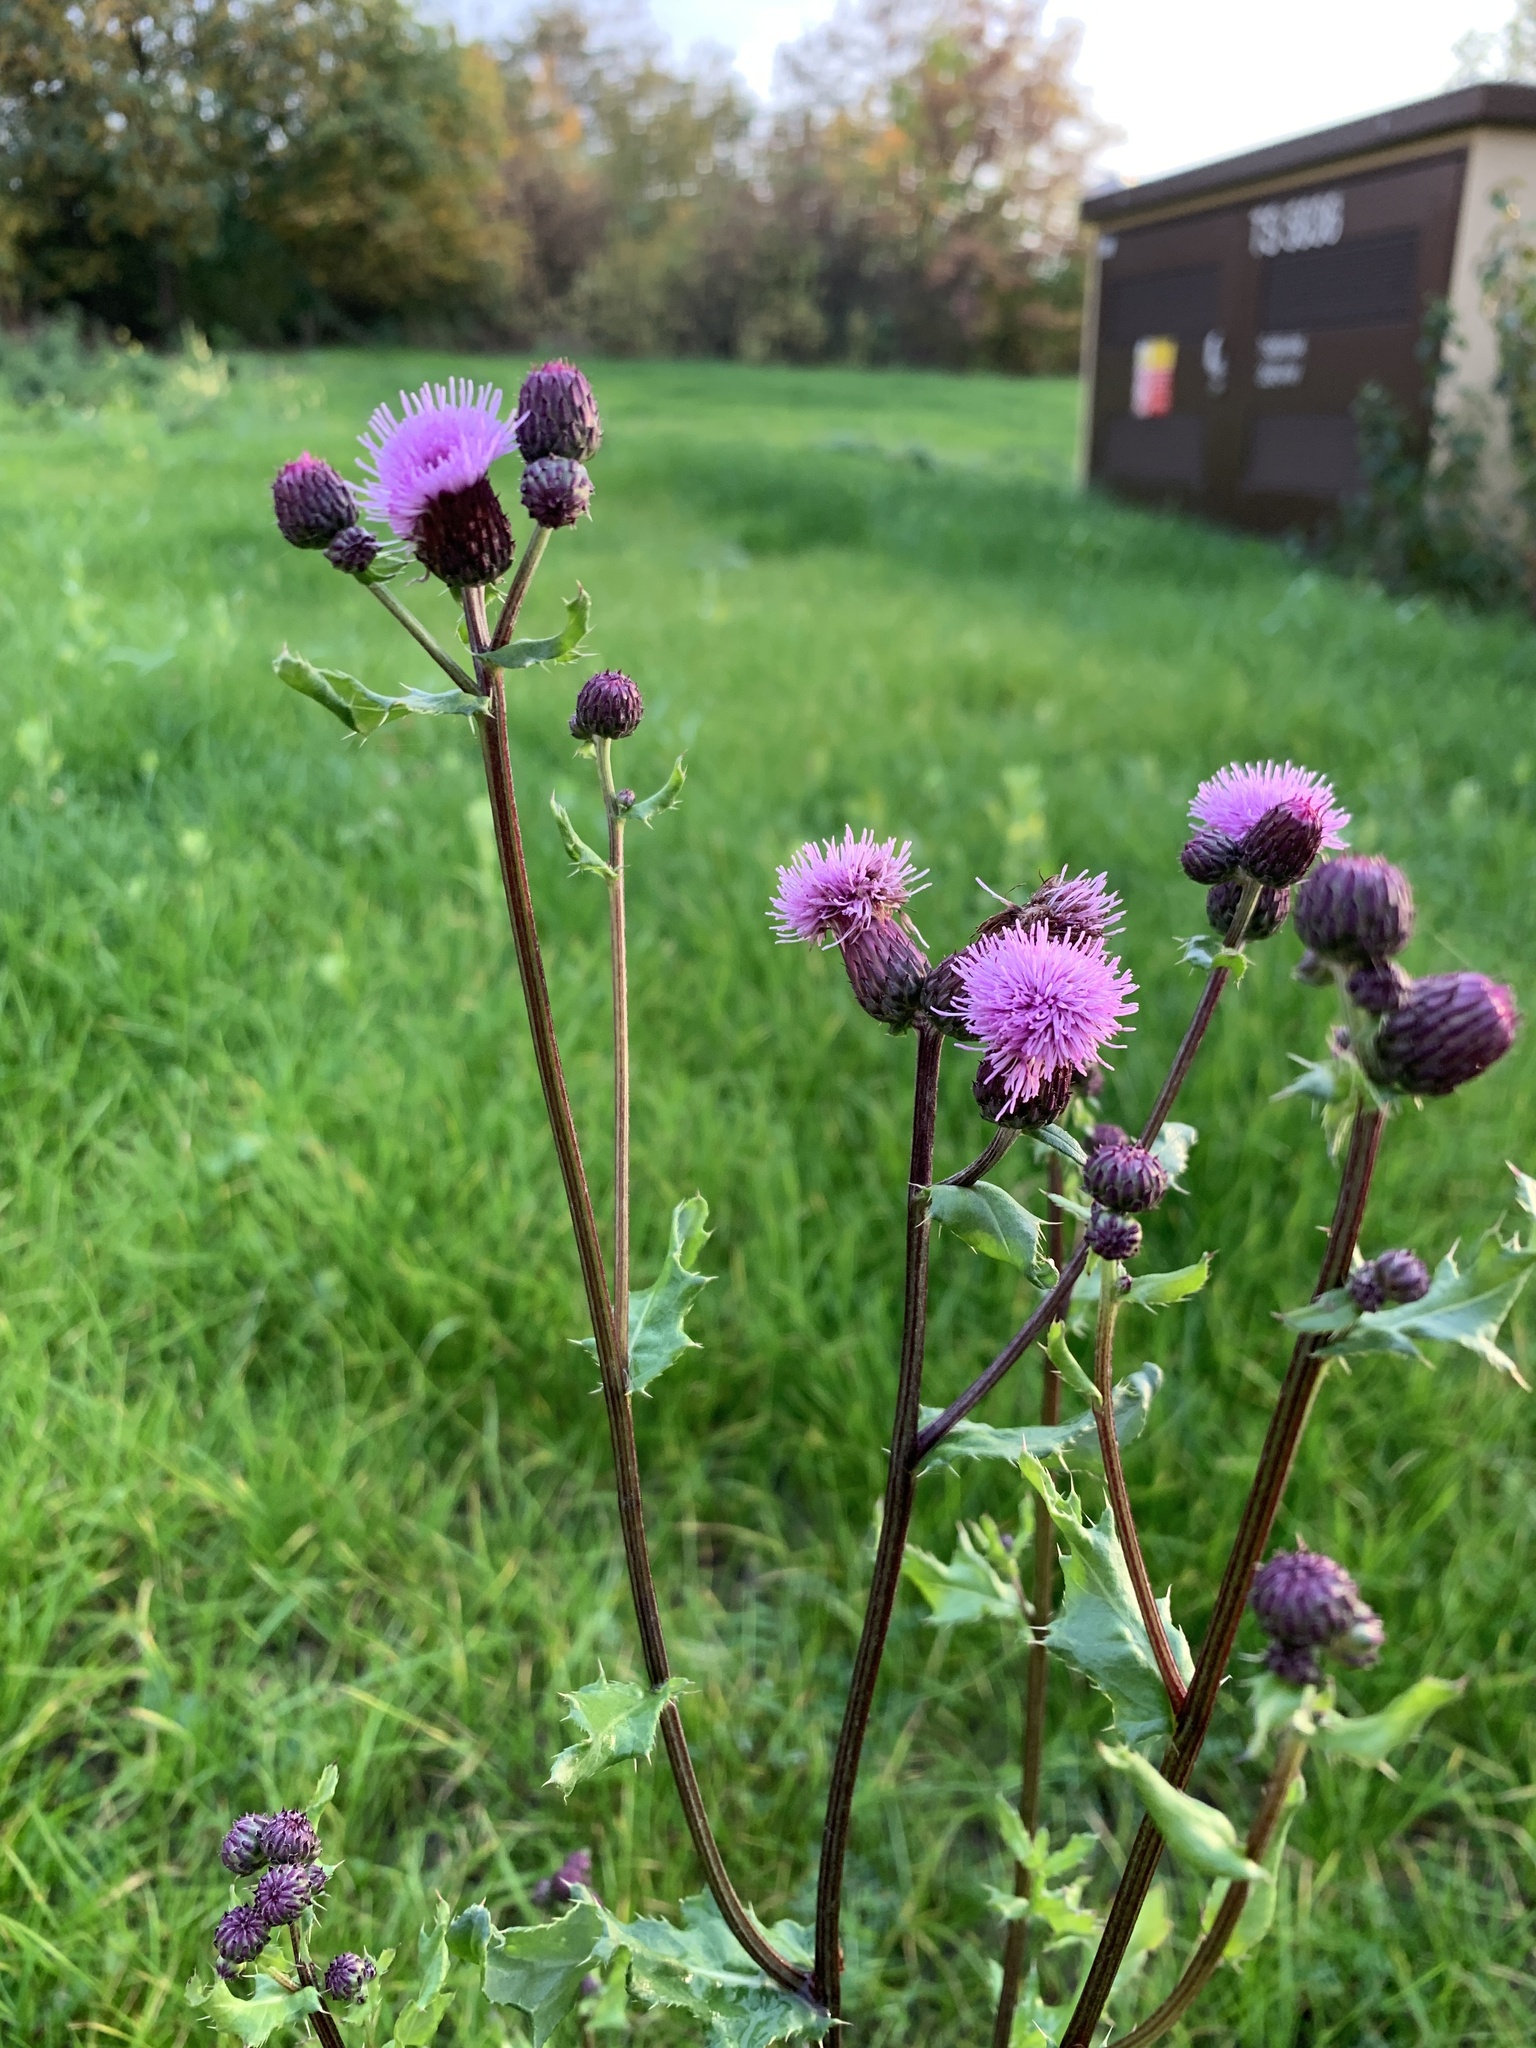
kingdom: Plantae
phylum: Tracheophyta
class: Magnoliopsida
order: Asterales
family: Asteraceae
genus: Cirsium
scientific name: Cirsium arvense
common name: Creeping thistle
